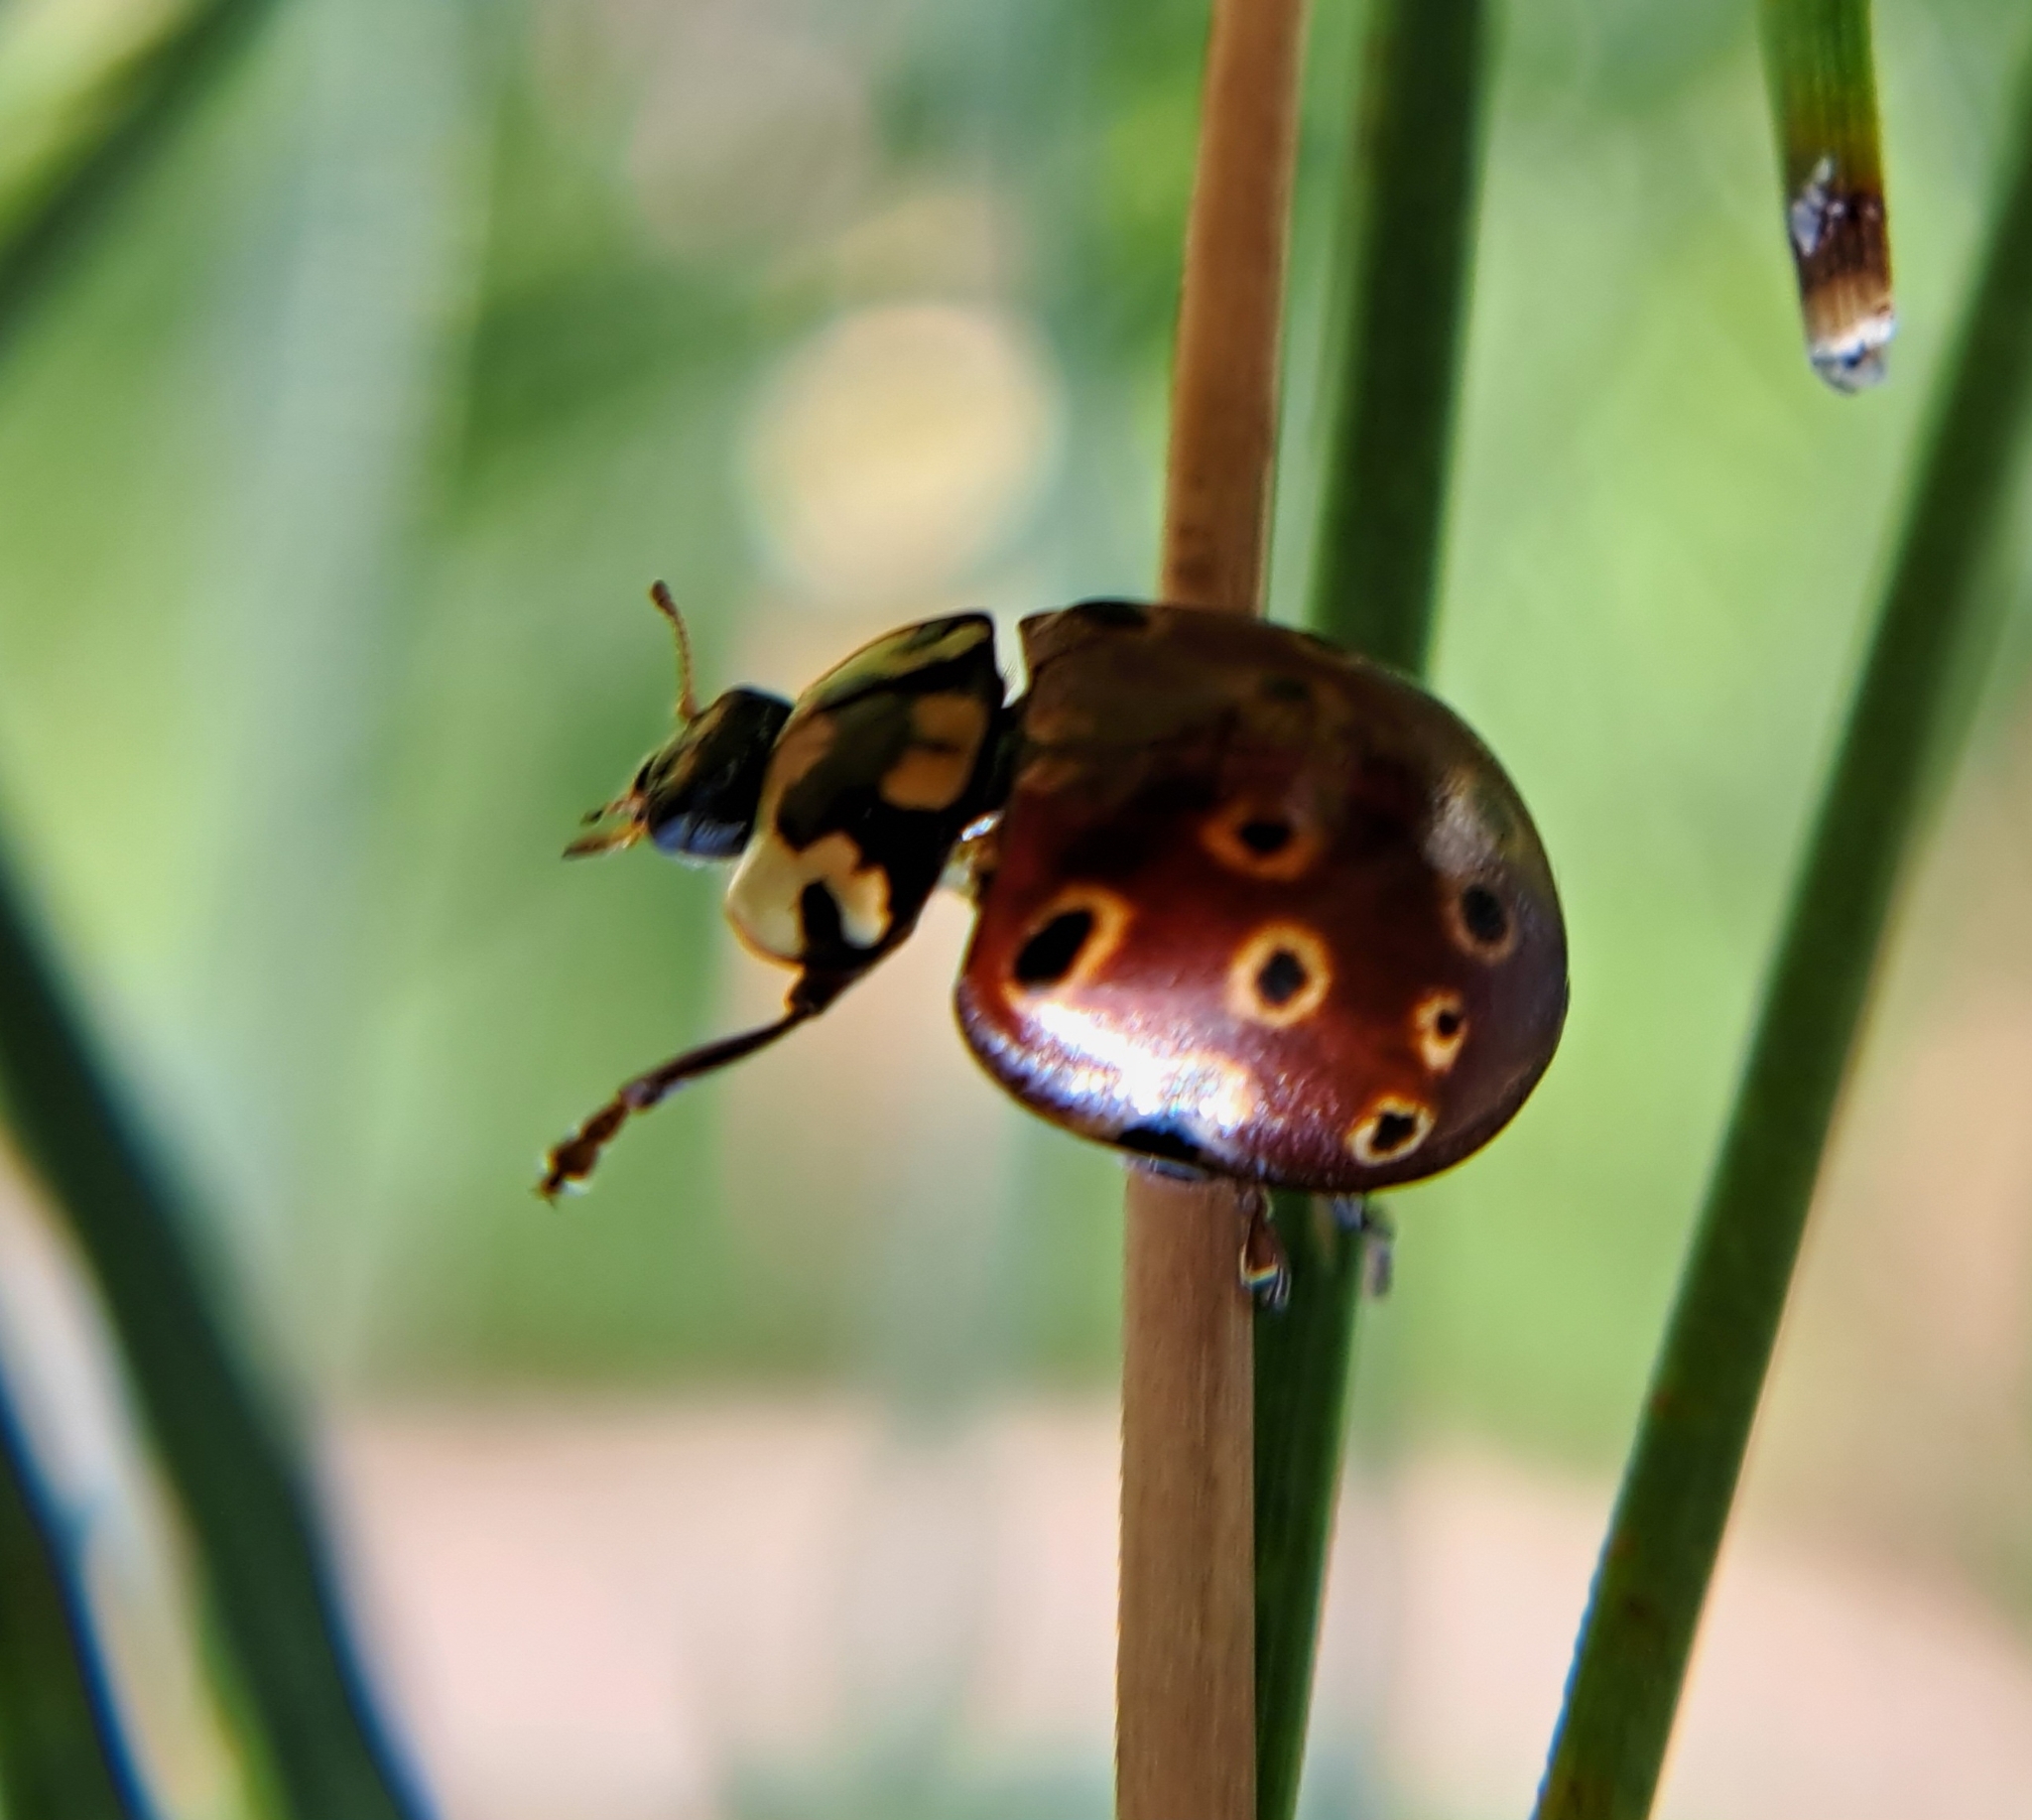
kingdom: Animalia
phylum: Arthropoda
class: Insecta
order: Coleoptera
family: Coccinellidae
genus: Anatis
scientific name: Anatis mali
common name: Eye-spotted lady beetle
